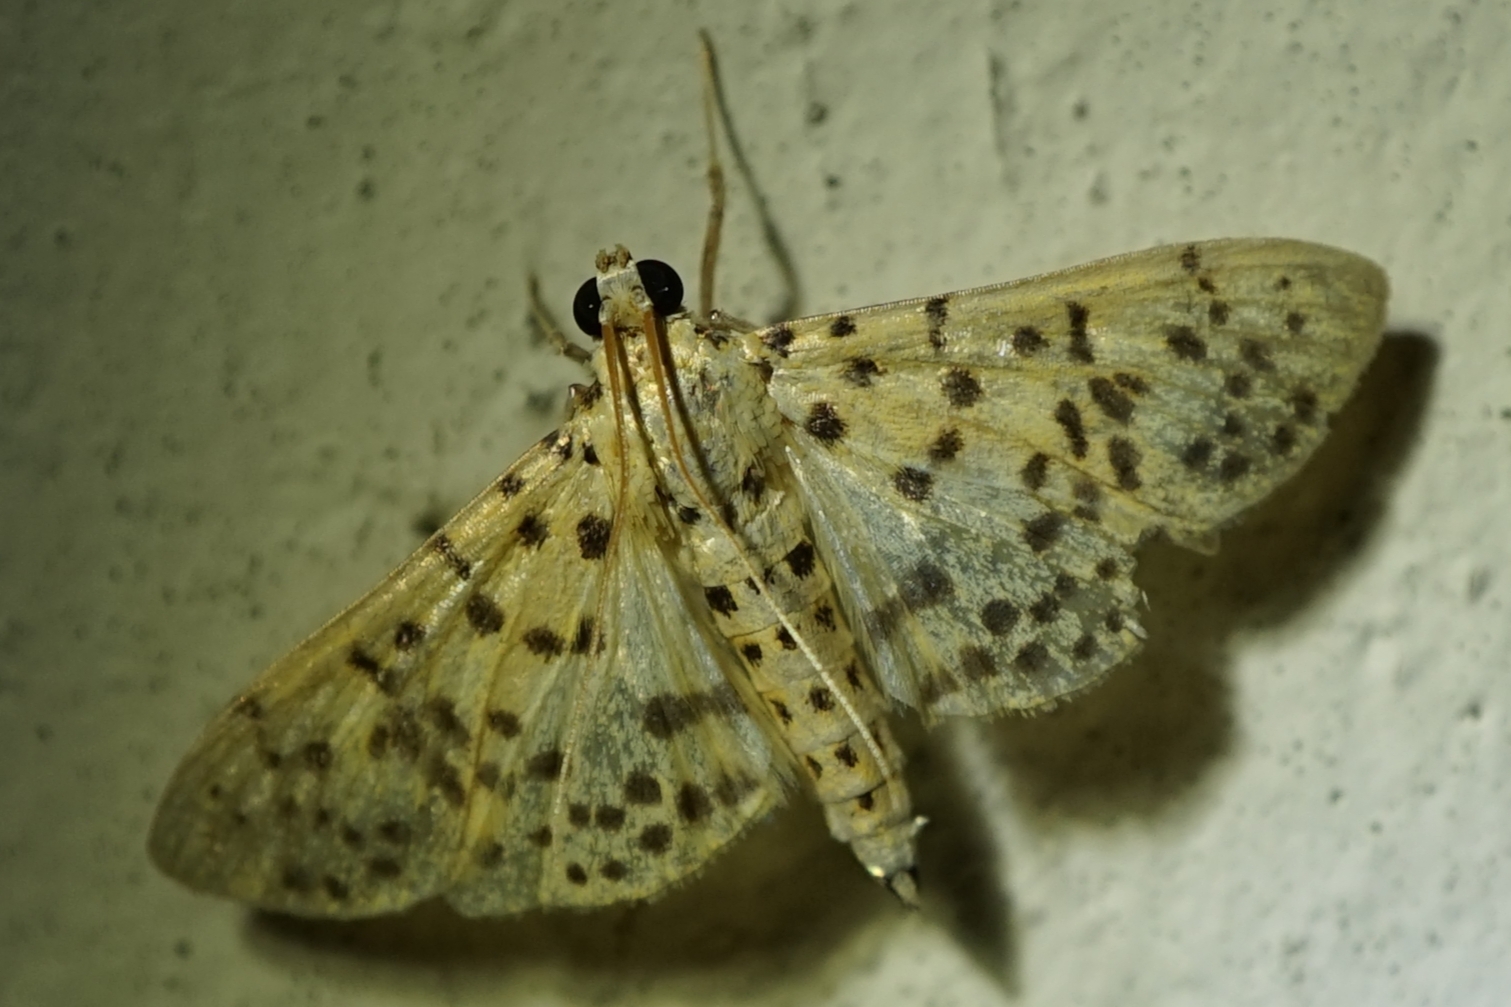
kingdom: Animalia
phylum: Arthropoda
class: Insecta
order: Lepidoptera
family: Crambidae
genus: Conogethes
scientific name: Conogethes punctiferalis
